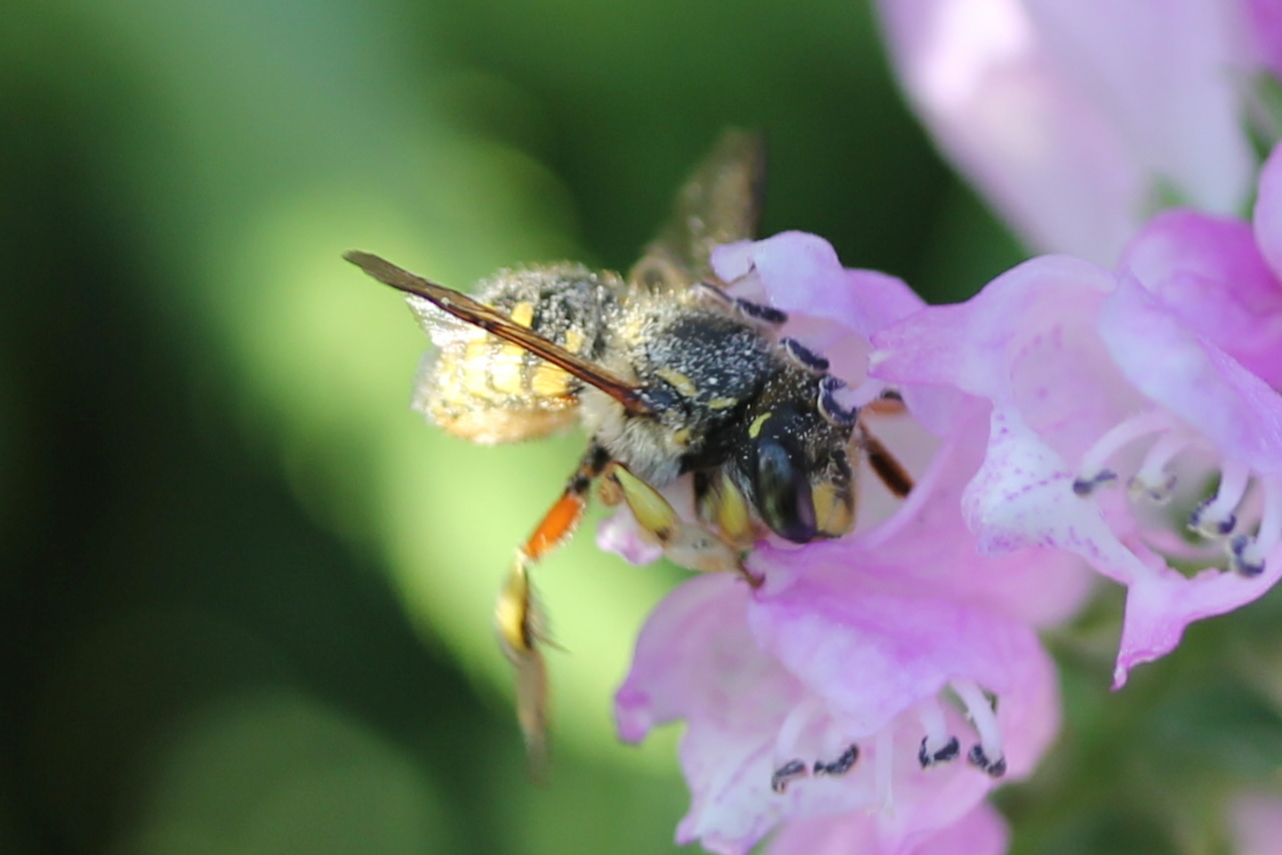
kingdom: Animalia
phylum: Arthropoda
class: Insecta
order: Hymenoptera
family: Megachilidae
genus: Anthidium
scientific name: Anthidium manicatum
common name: Wool carder bee
